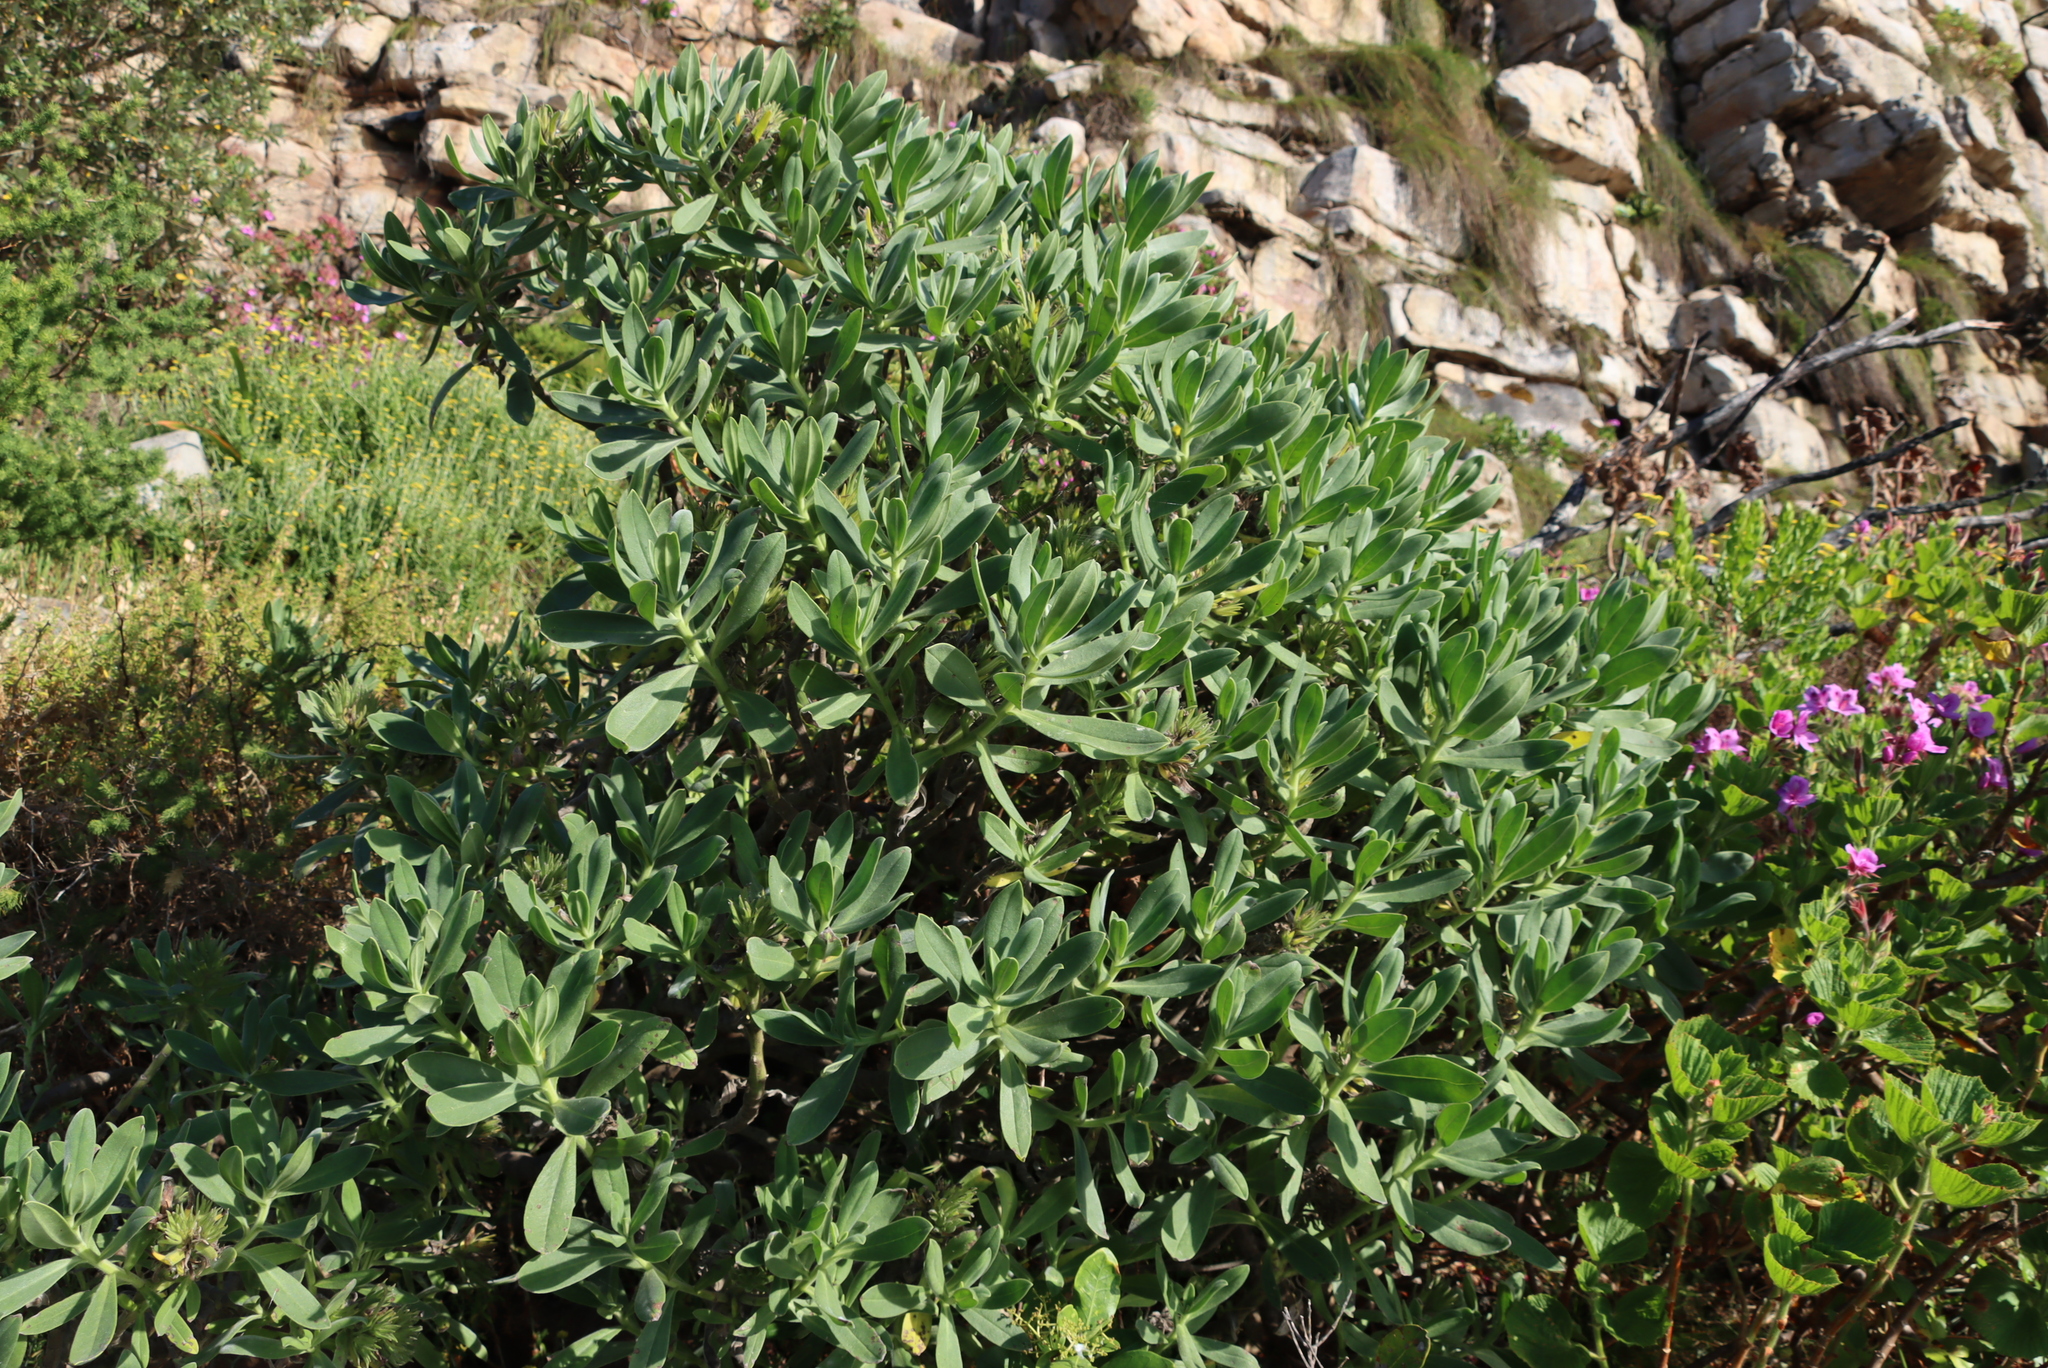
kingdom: Plantae
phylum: Tracheophyta
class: Magnoliopsida
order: Boraginales
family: Boraginaceae
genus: Lobostemon
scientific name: Lobostemon montanus
